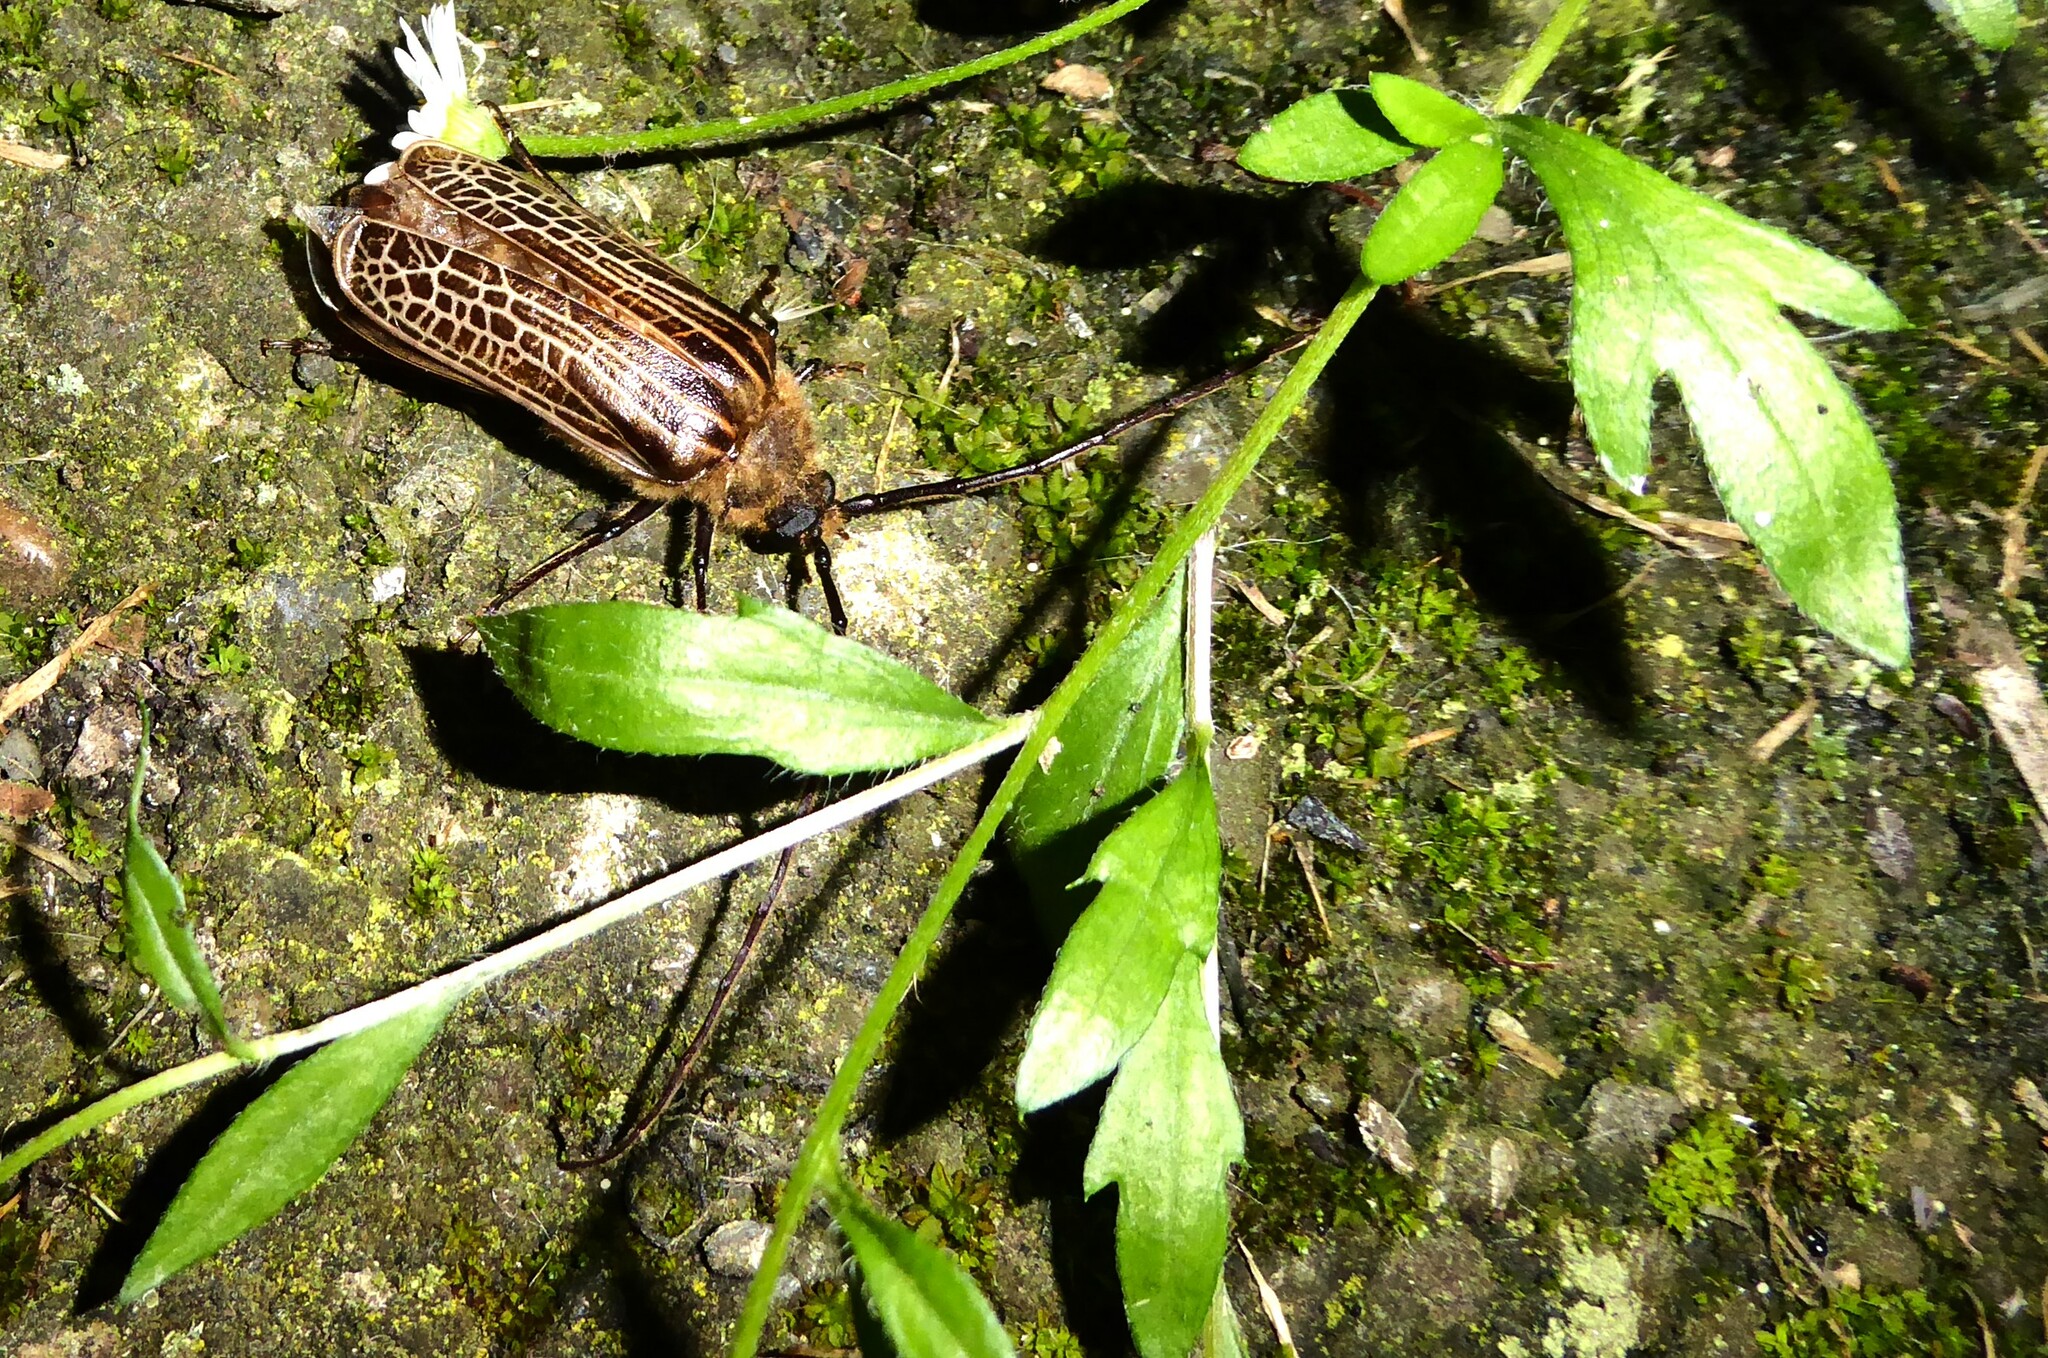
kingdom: Animalia
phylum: Arthropoda
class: Insecta
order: Coleoptera
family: Cerambycidae
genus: Prionoplus
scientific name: Prionoplus reticularis
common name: Huhu beetle
